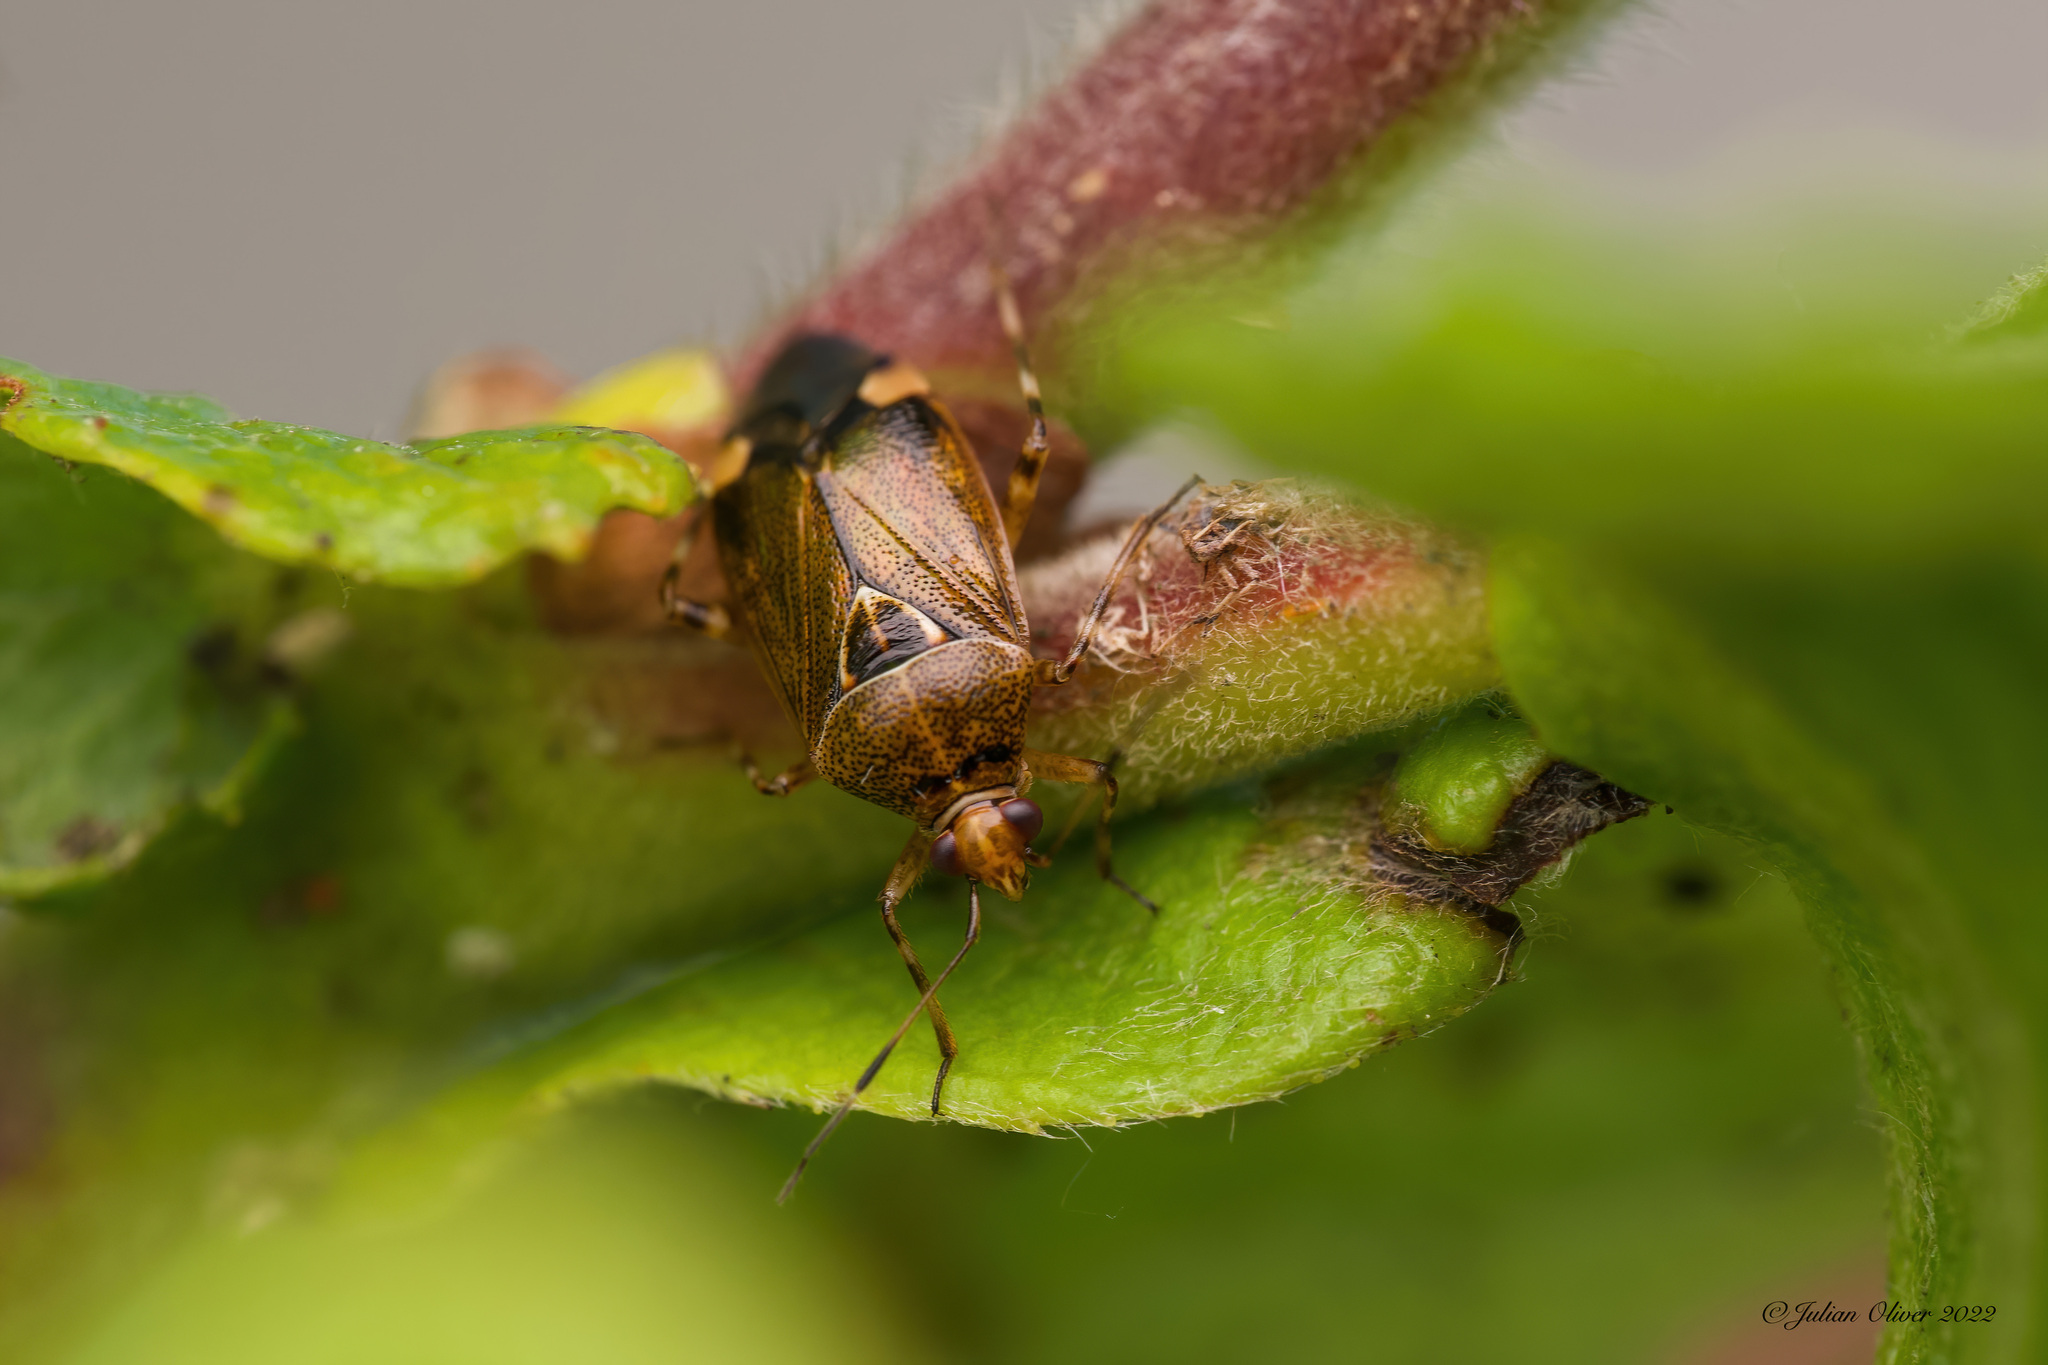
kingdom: Animalia
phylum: Arthropoda
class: Insecta
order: Hemiptera
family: Miridae
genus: Deraeocoris
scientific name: Deraeocoris flavilinea
